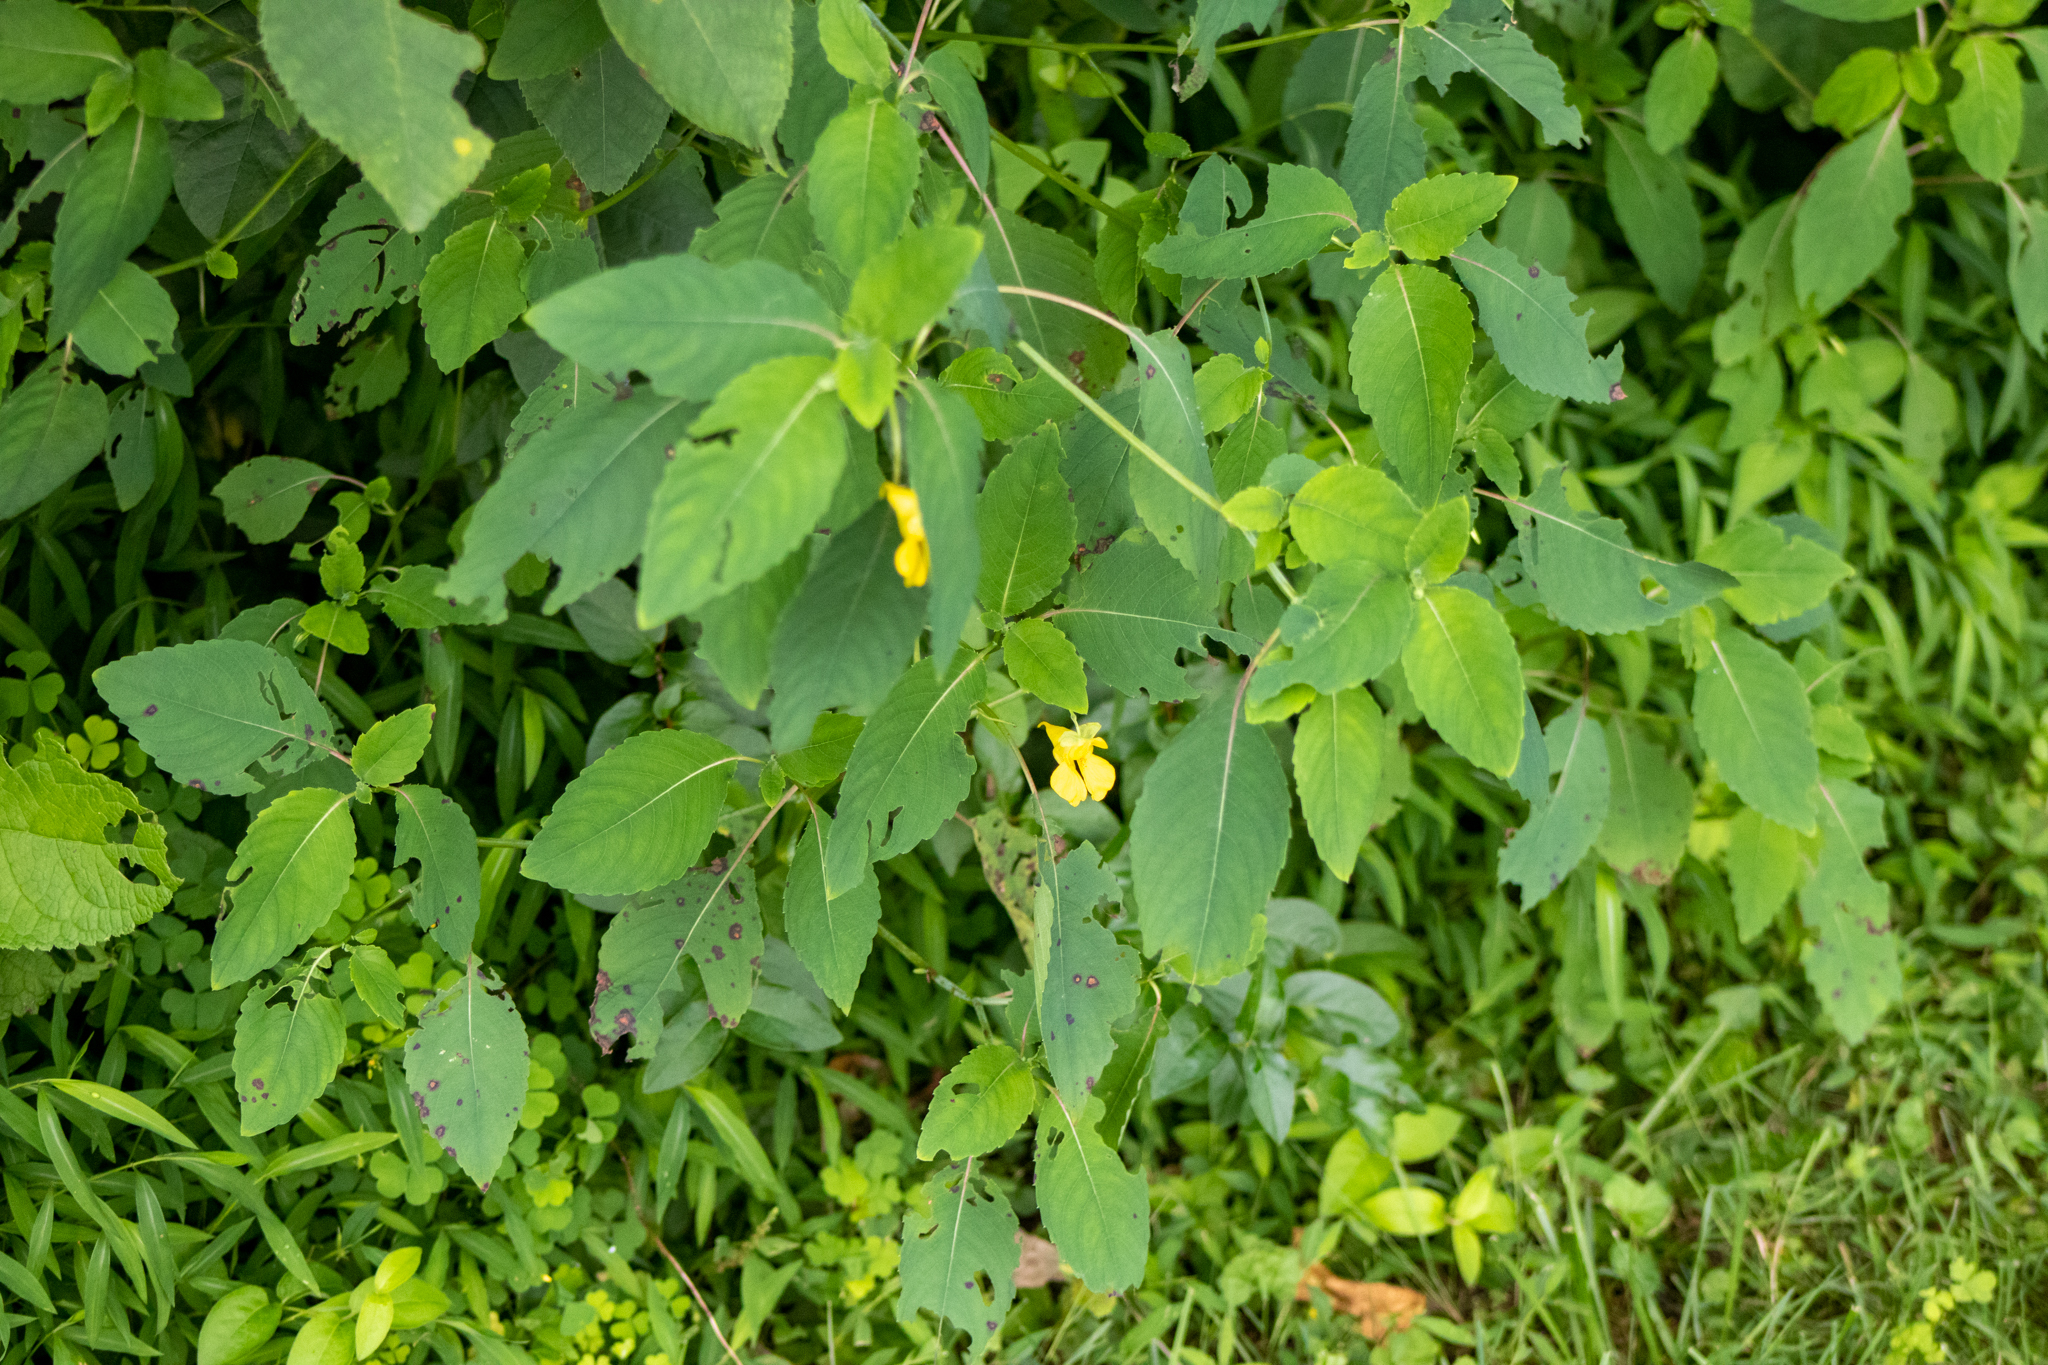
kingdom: Plantae
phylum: Tracheophyta
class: Magnoliopsida
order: Ericales
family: Balsaminaceae
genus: Impatiens
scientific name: Impatiens pallida
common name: Pale snapweed
